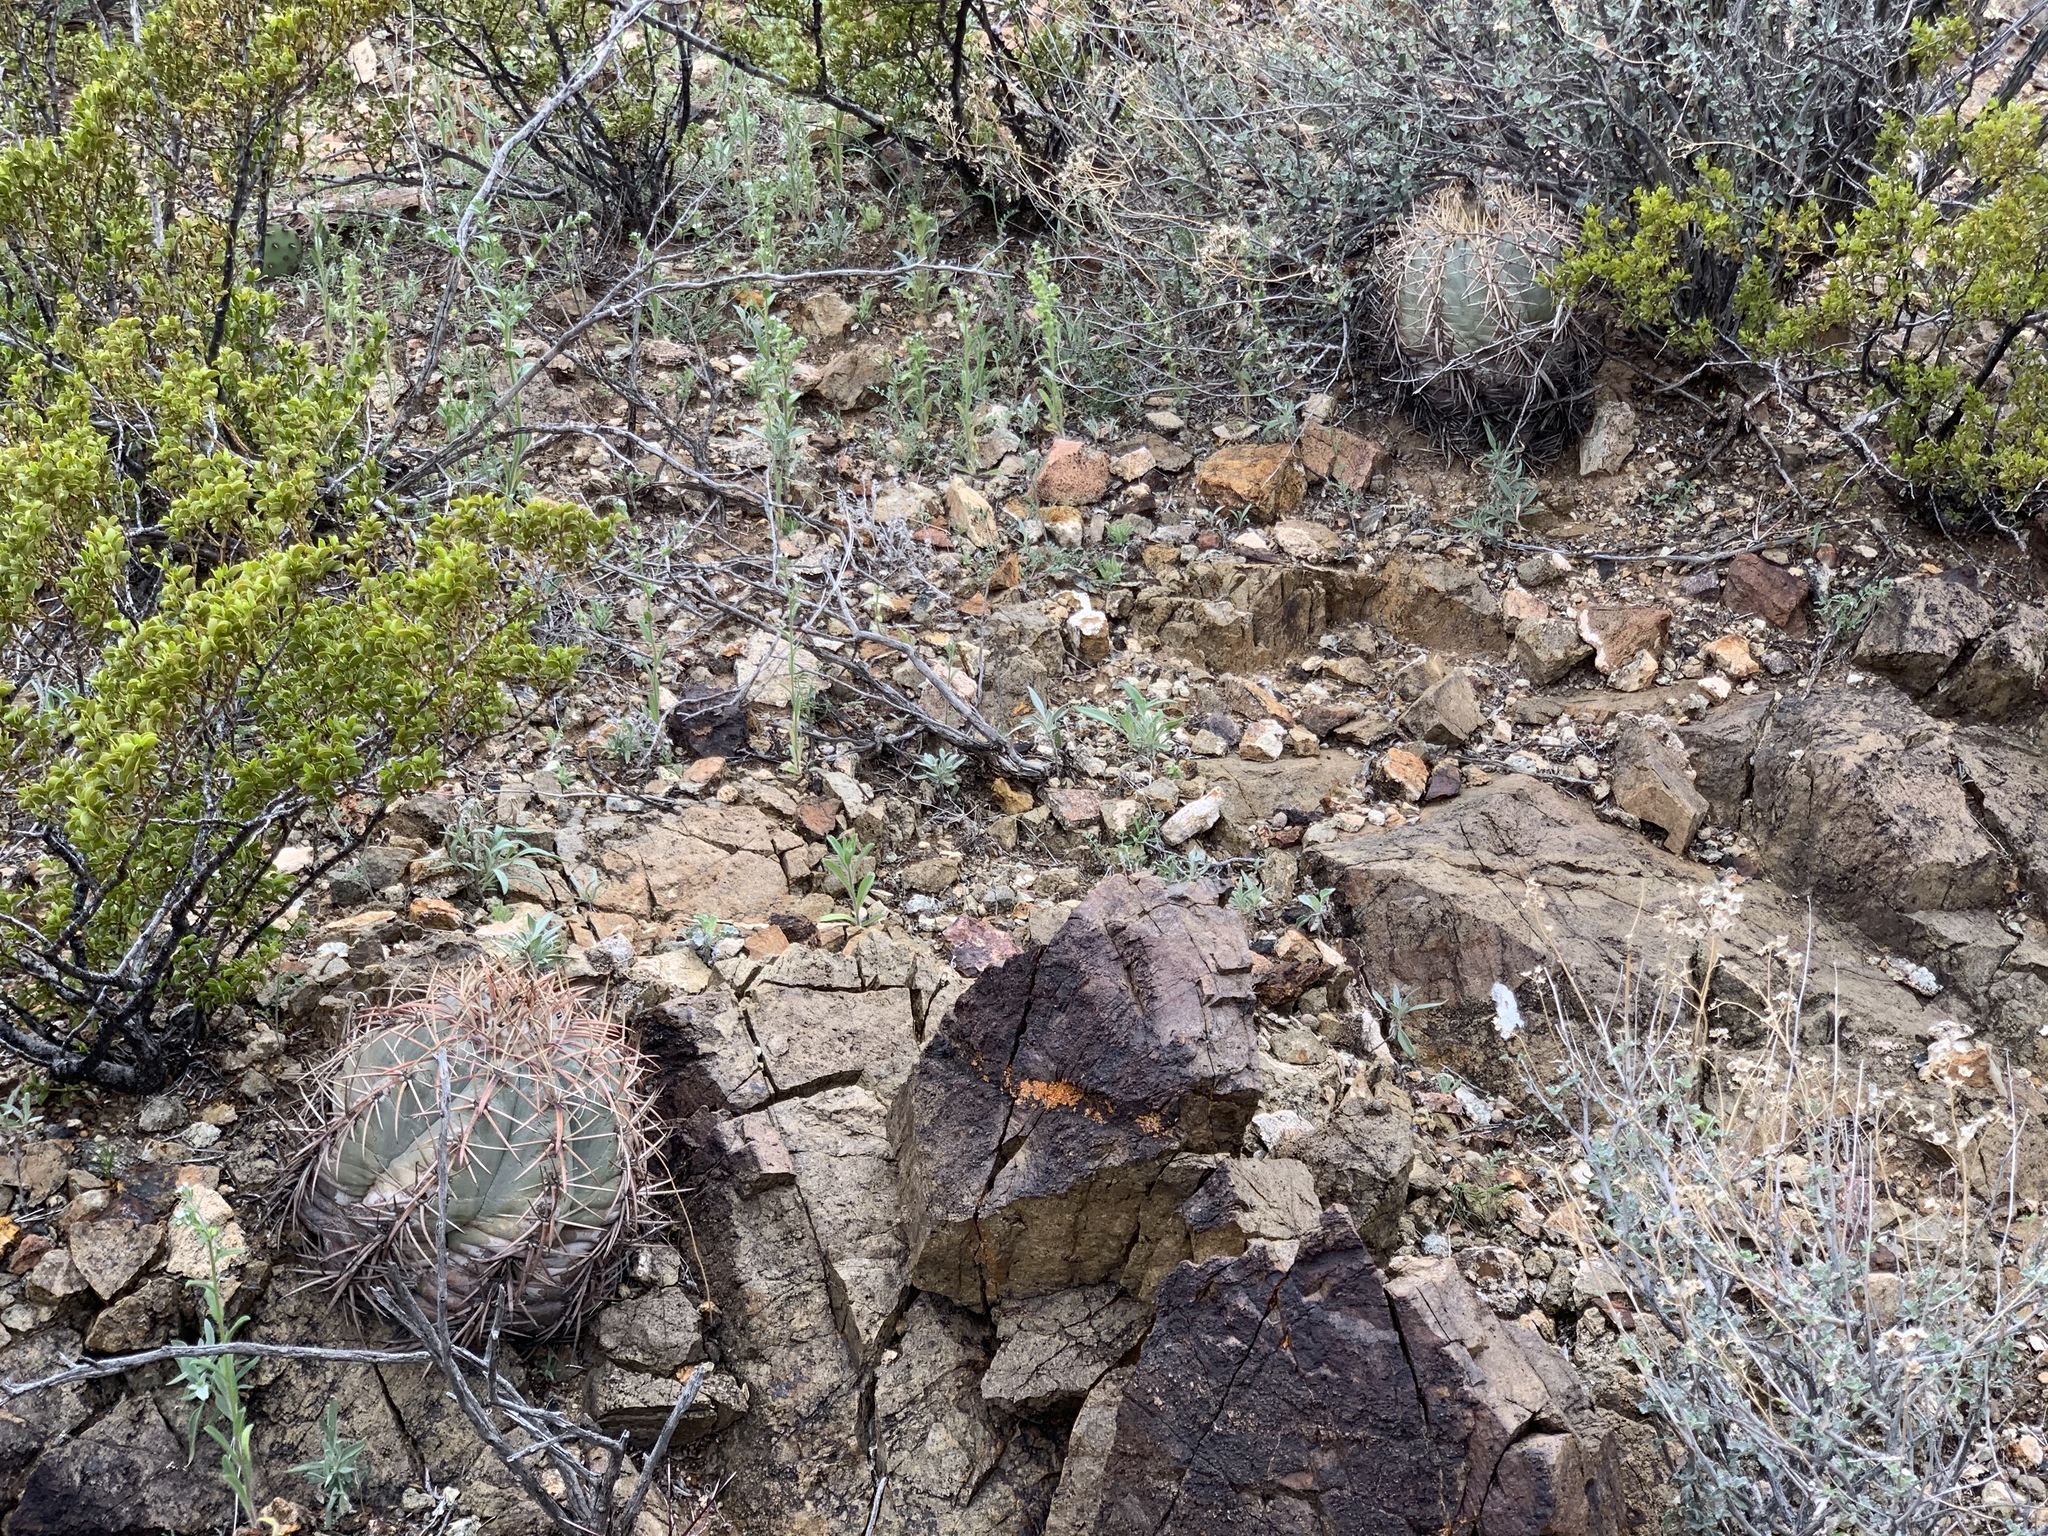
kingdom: Plantae
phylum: Tracheophyta
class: Magnoliopsida
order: Caryophyllales
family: Cactaceae
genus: Echinocactus
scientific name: Echinocactus horizonthalonius
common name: Devilshead
